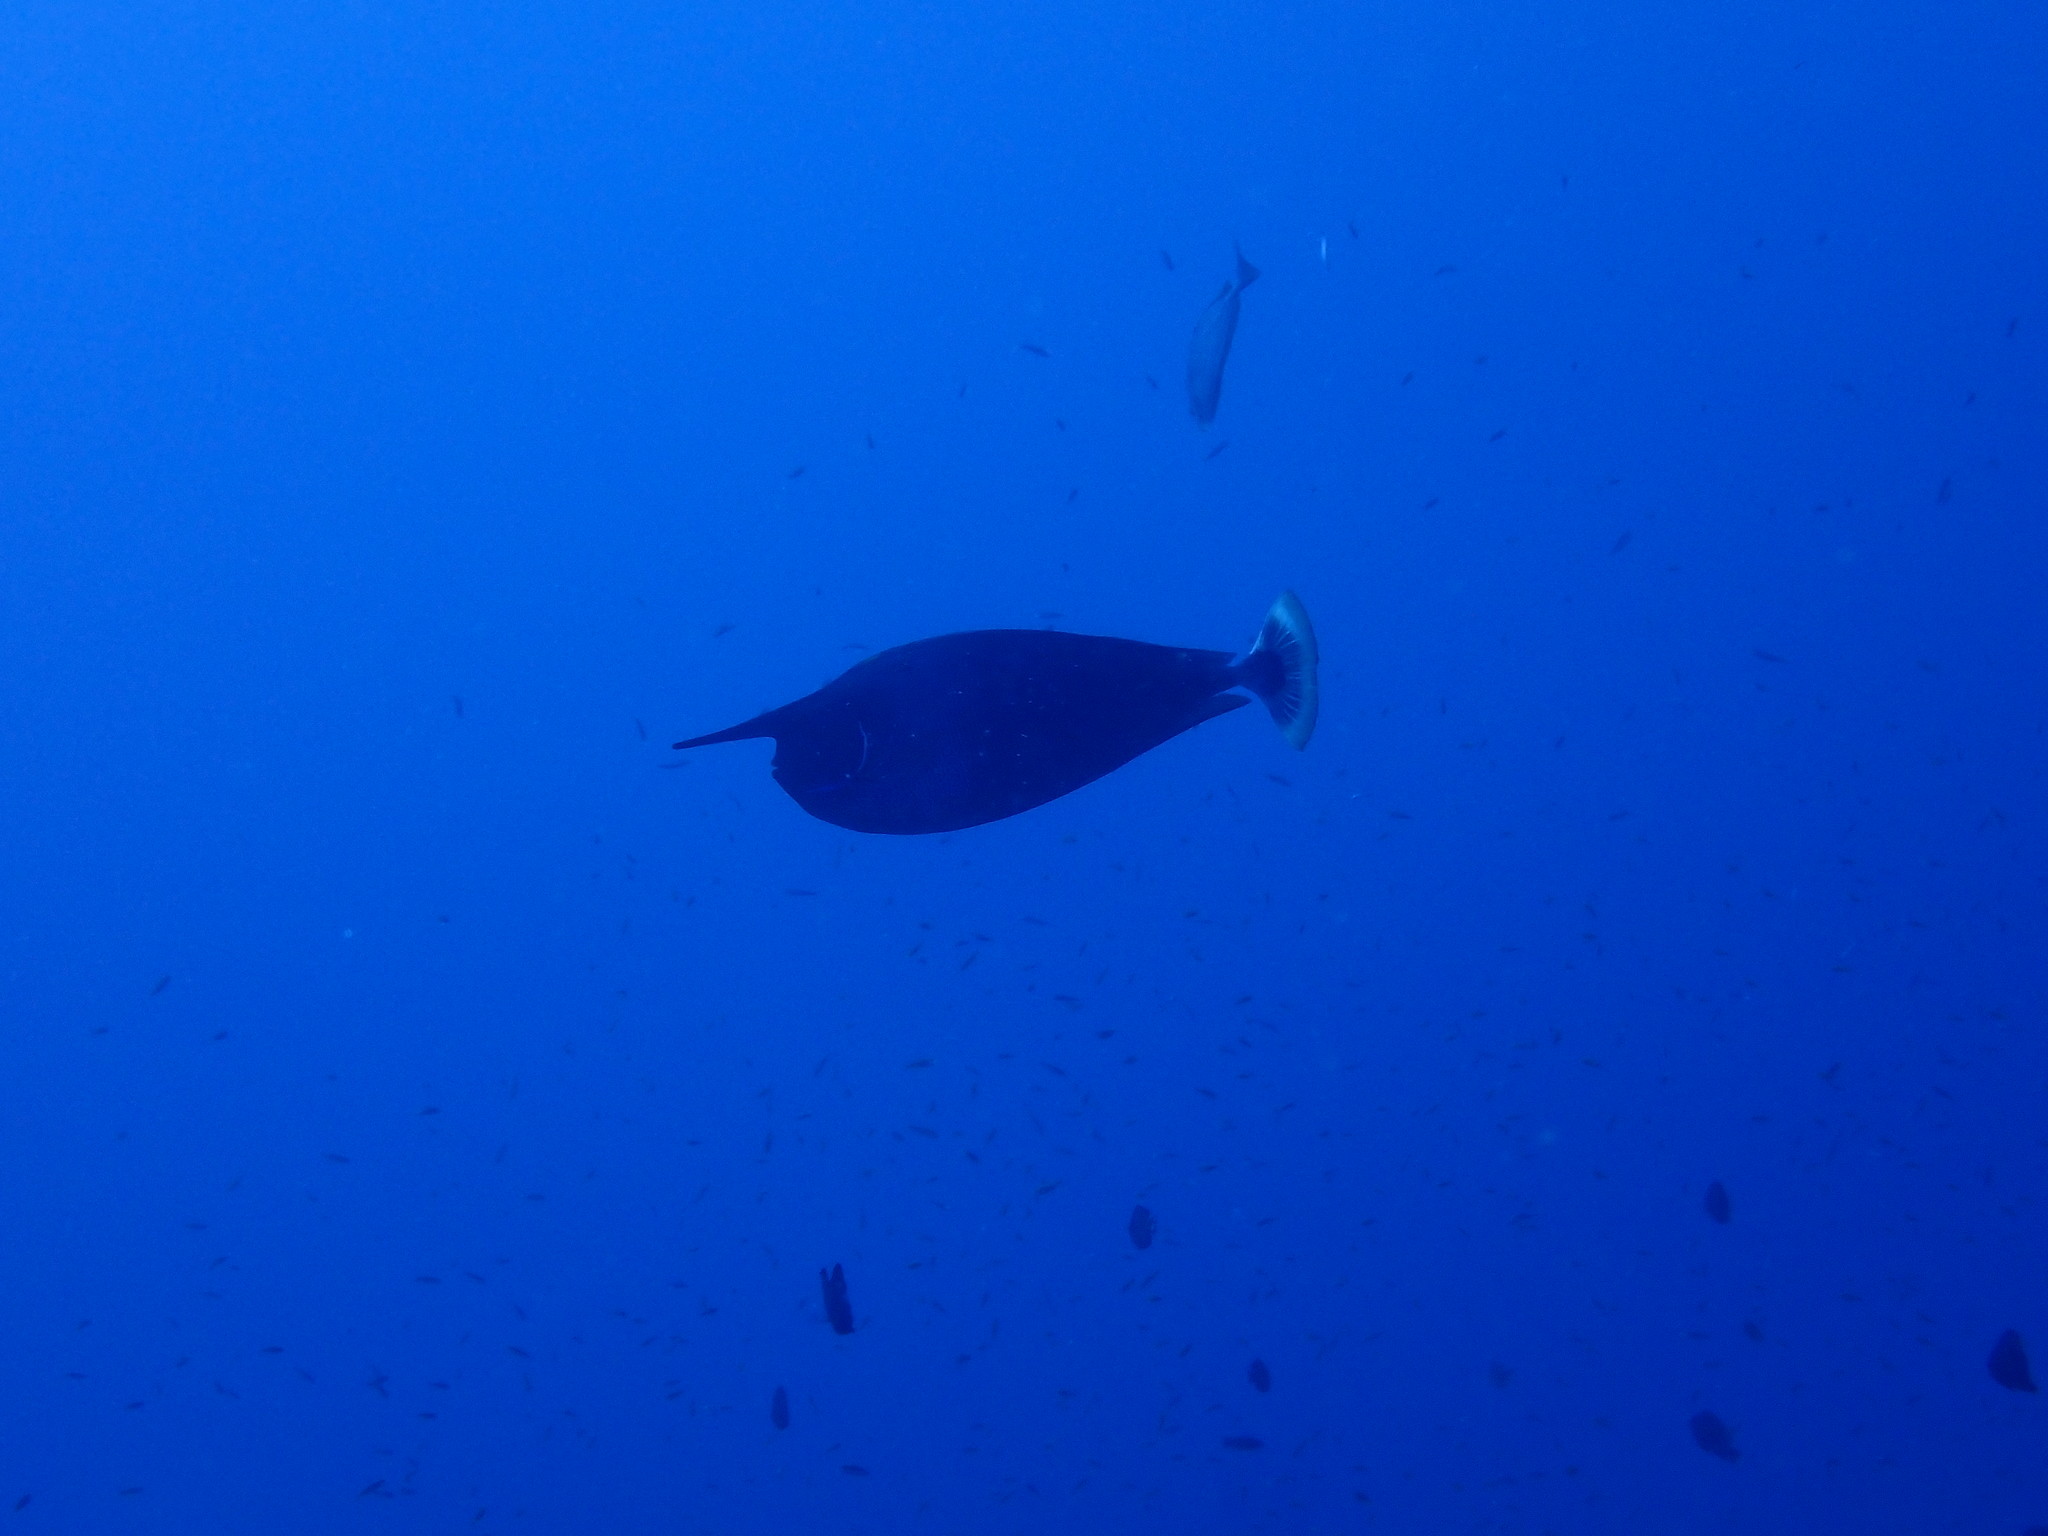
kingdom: Animalia
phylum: Chordata
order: Perciformes
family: Acanthuridae
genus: Naso
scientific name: Naso brevirostris
